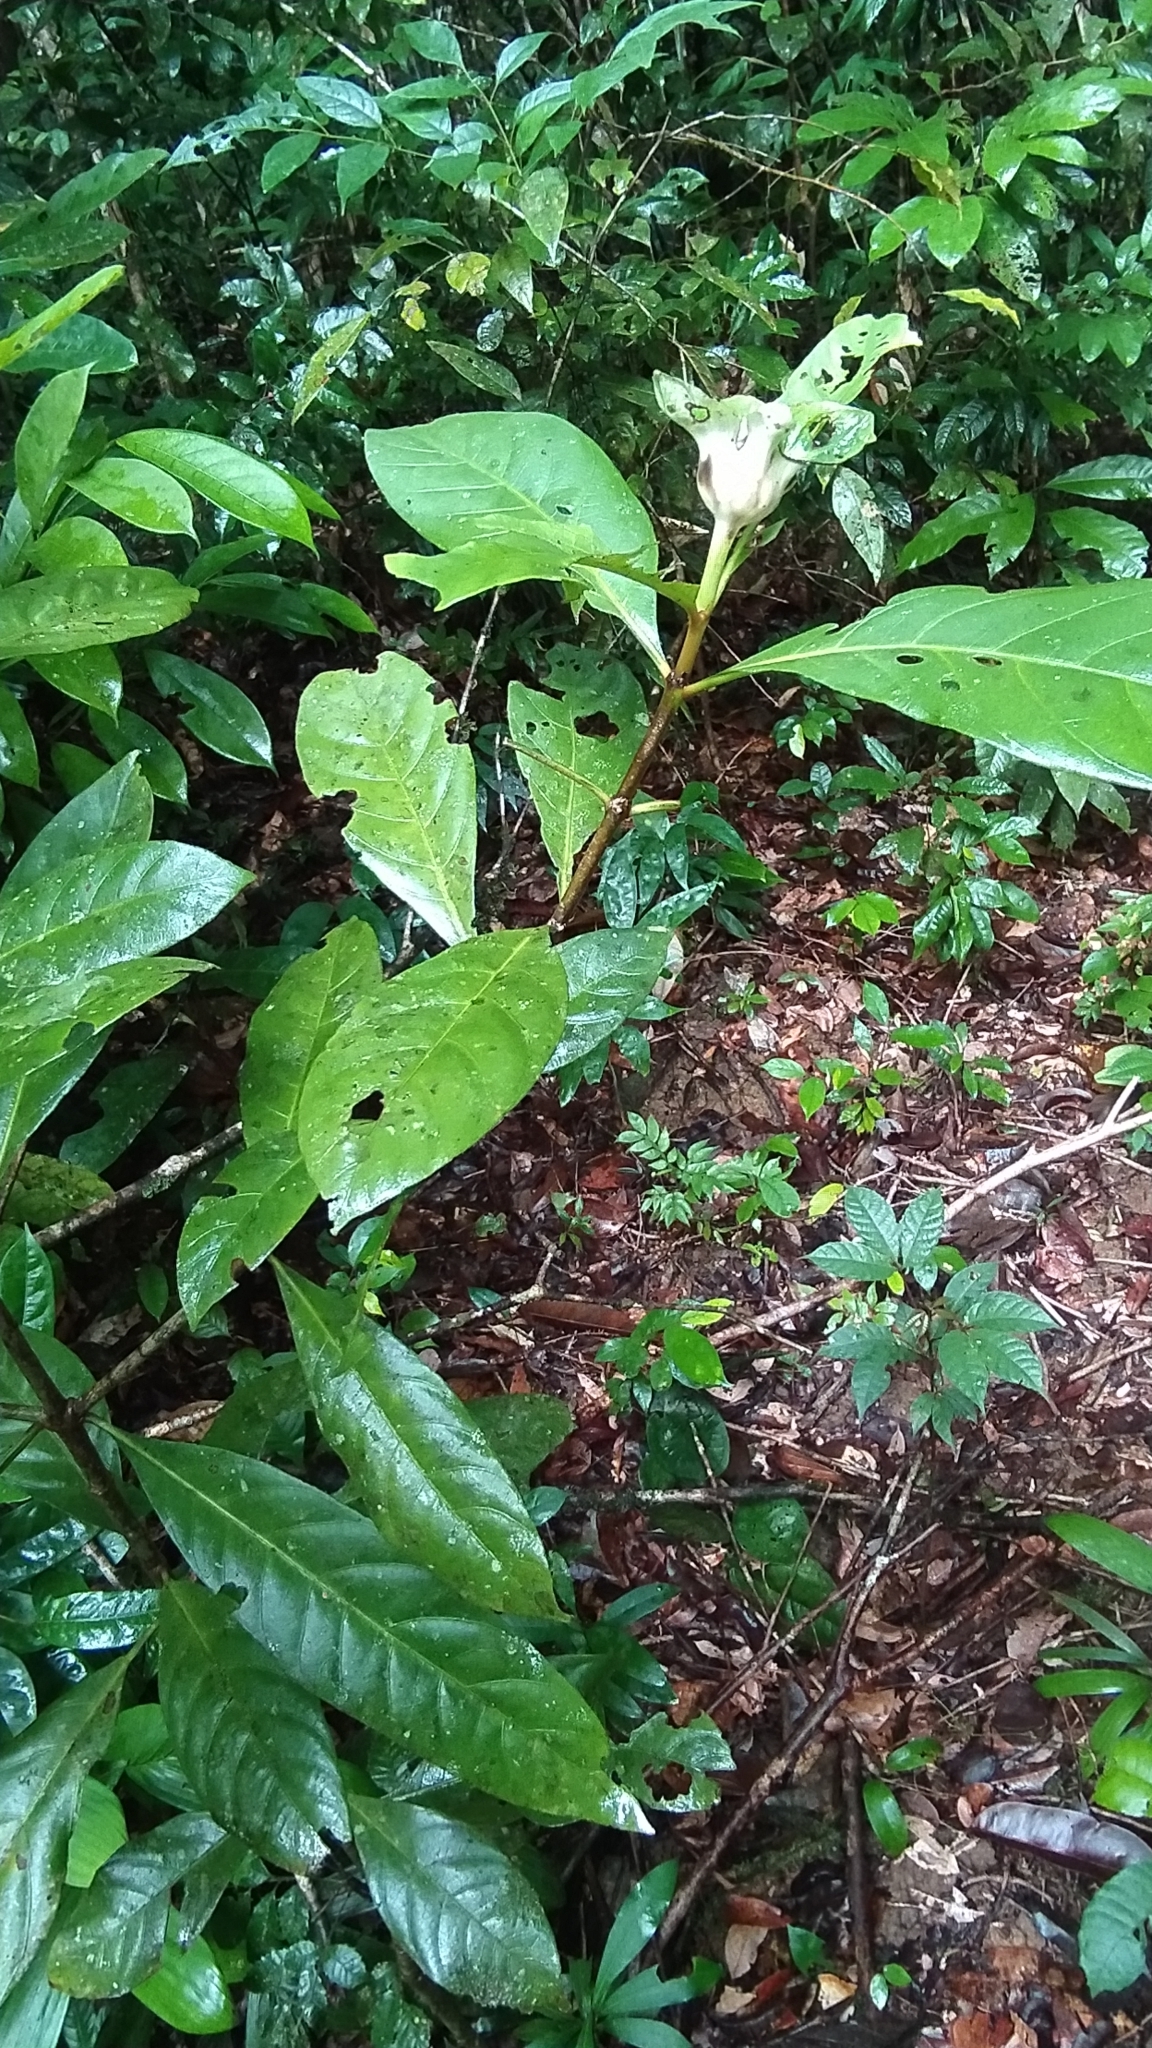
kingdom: Plantae
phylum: Tracheophyta
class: Magnoliopsida
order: Gentianales
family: Rubiaceae
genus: Carapichea
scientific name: Carapichea guianensis
